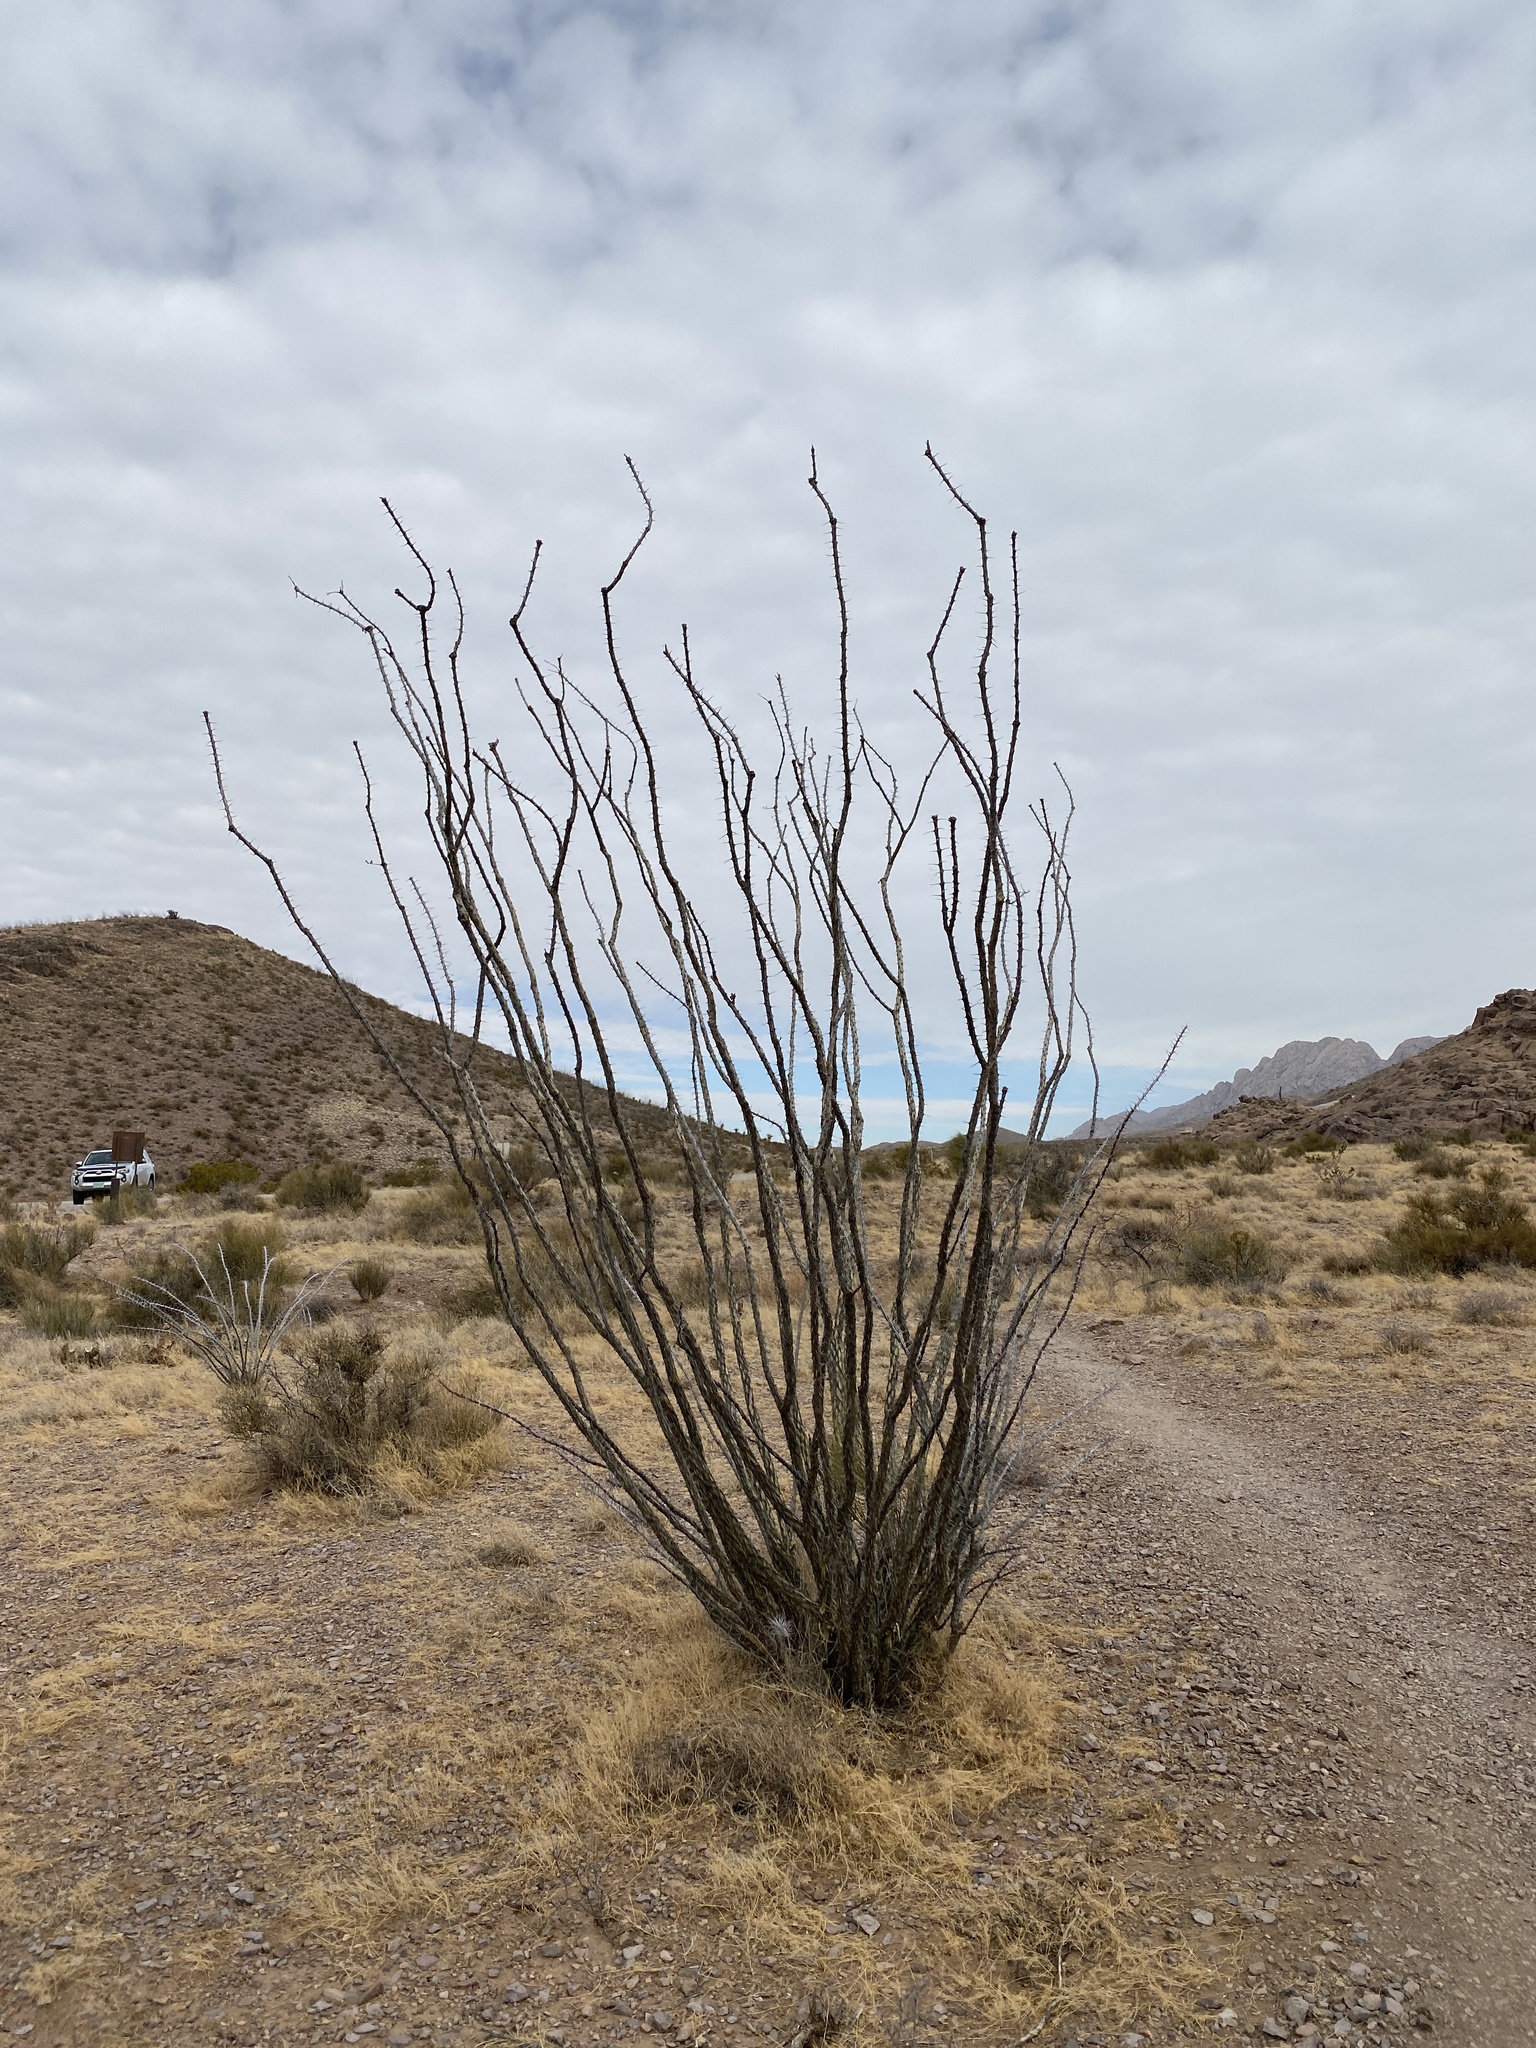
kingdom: Plantae
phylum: Tracheophyta
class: Magnoliopsida
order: Ericales
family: Fouquieriaceae
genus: Fouquieria
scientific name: Fouquieria splendens
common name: Vine-cactus
